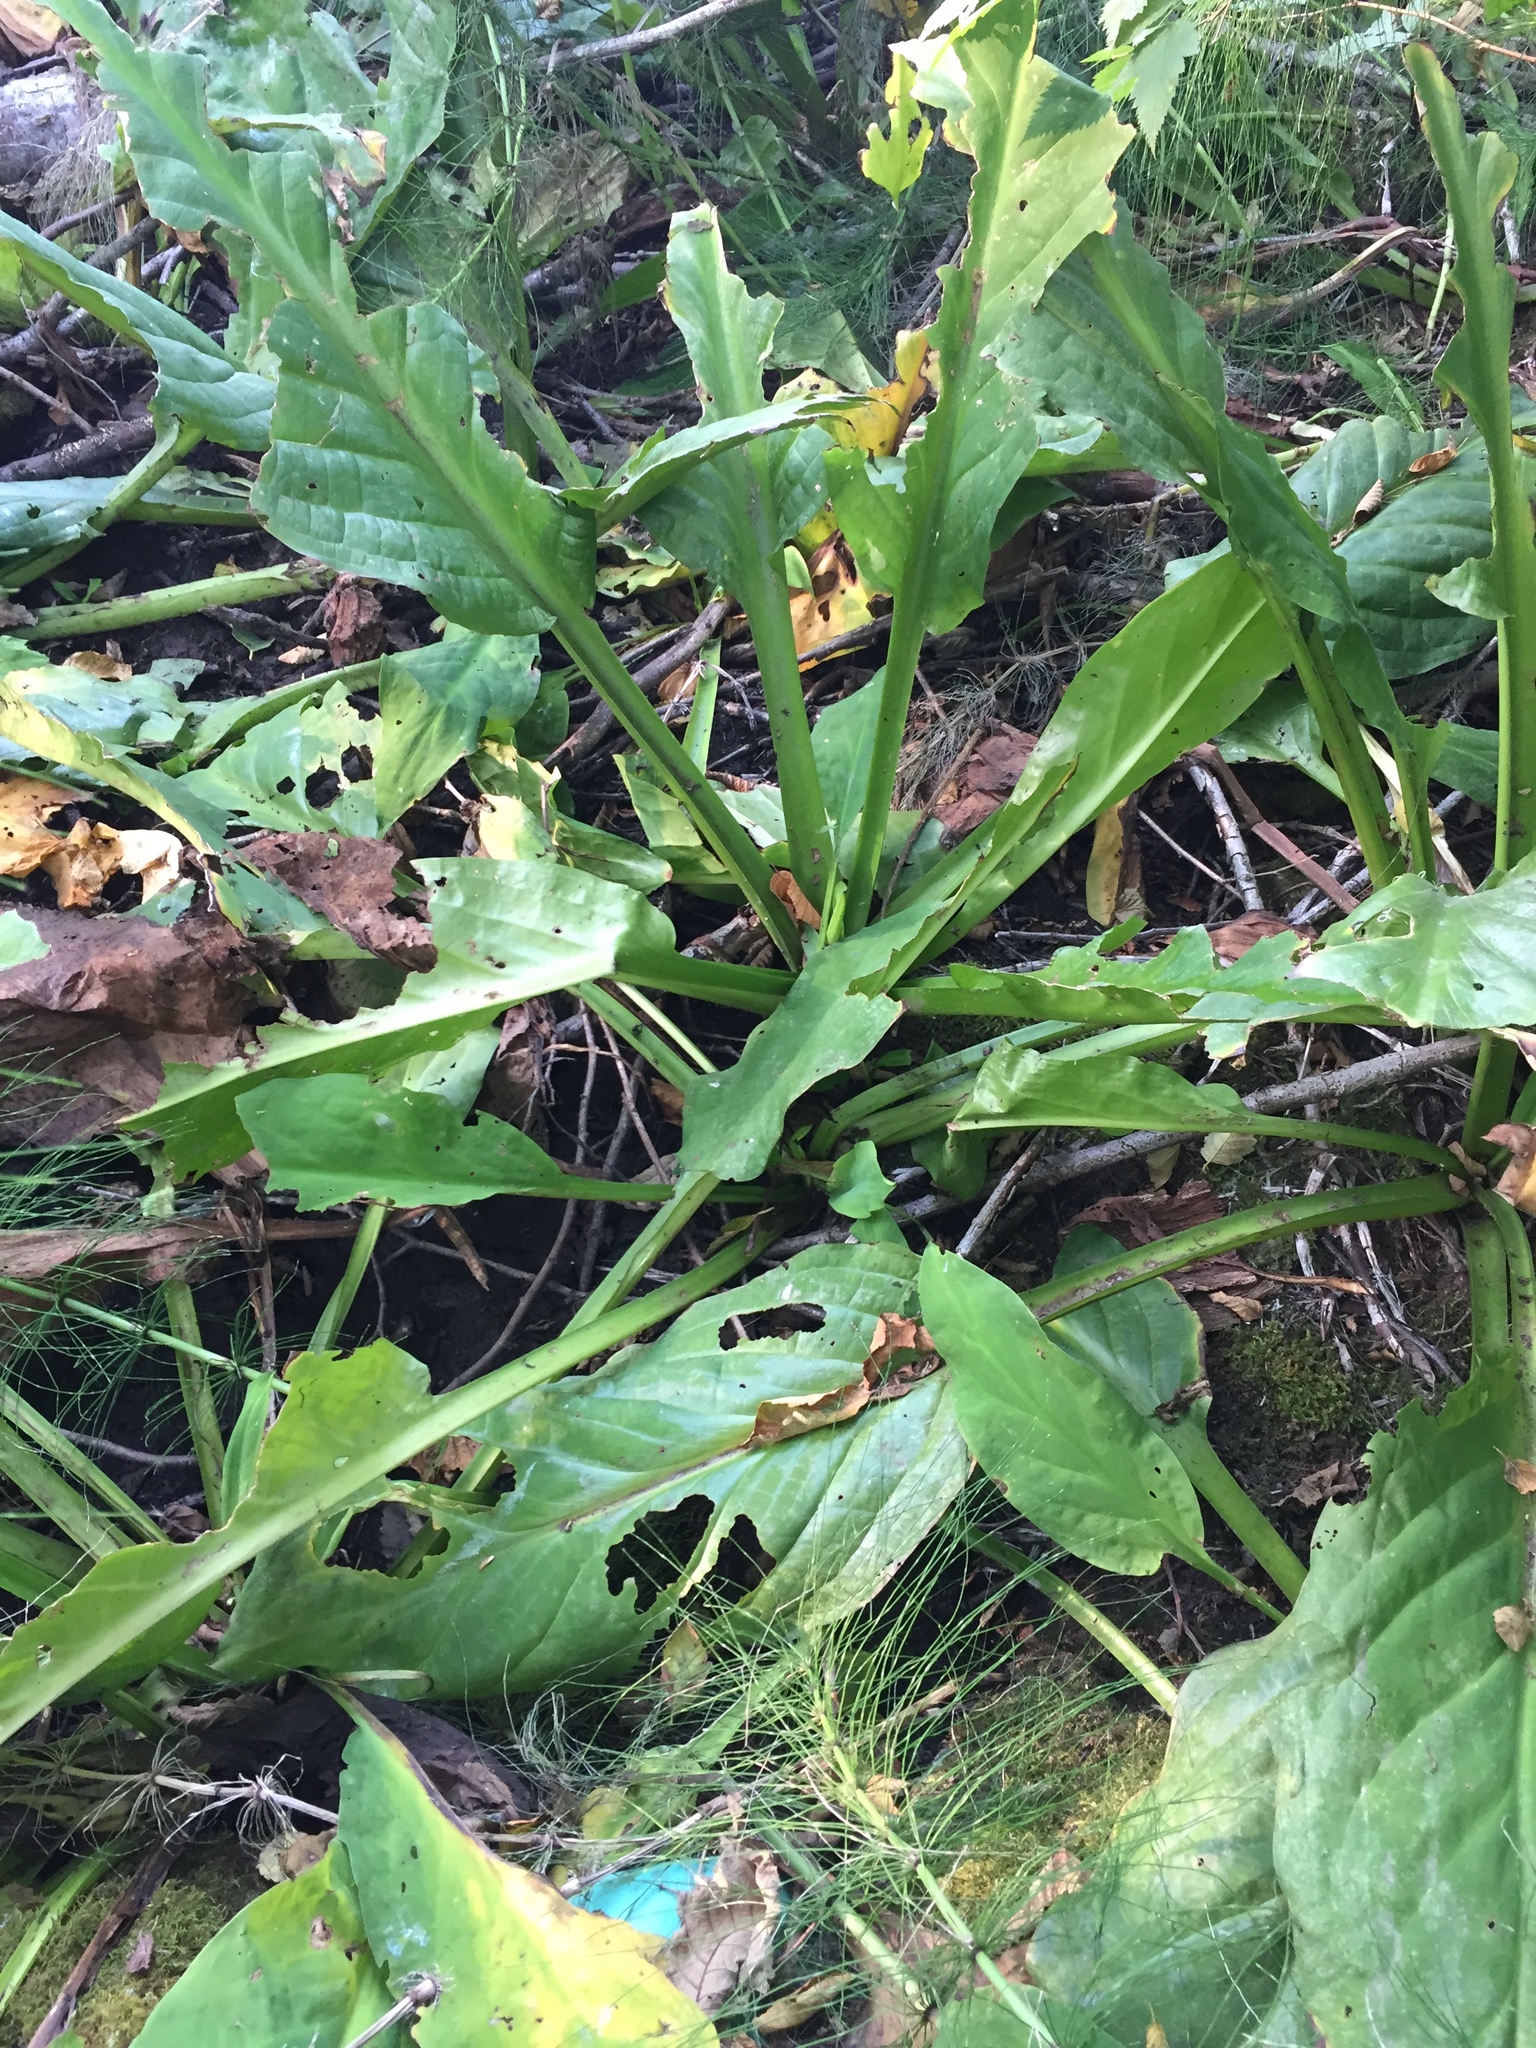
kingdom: Plantae
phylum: Tracheophyta
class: Liliopsida
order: Alismatales
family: Araceae
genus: Lysichiton
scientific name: Lysichiton americanus
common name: American skunk cabbage
